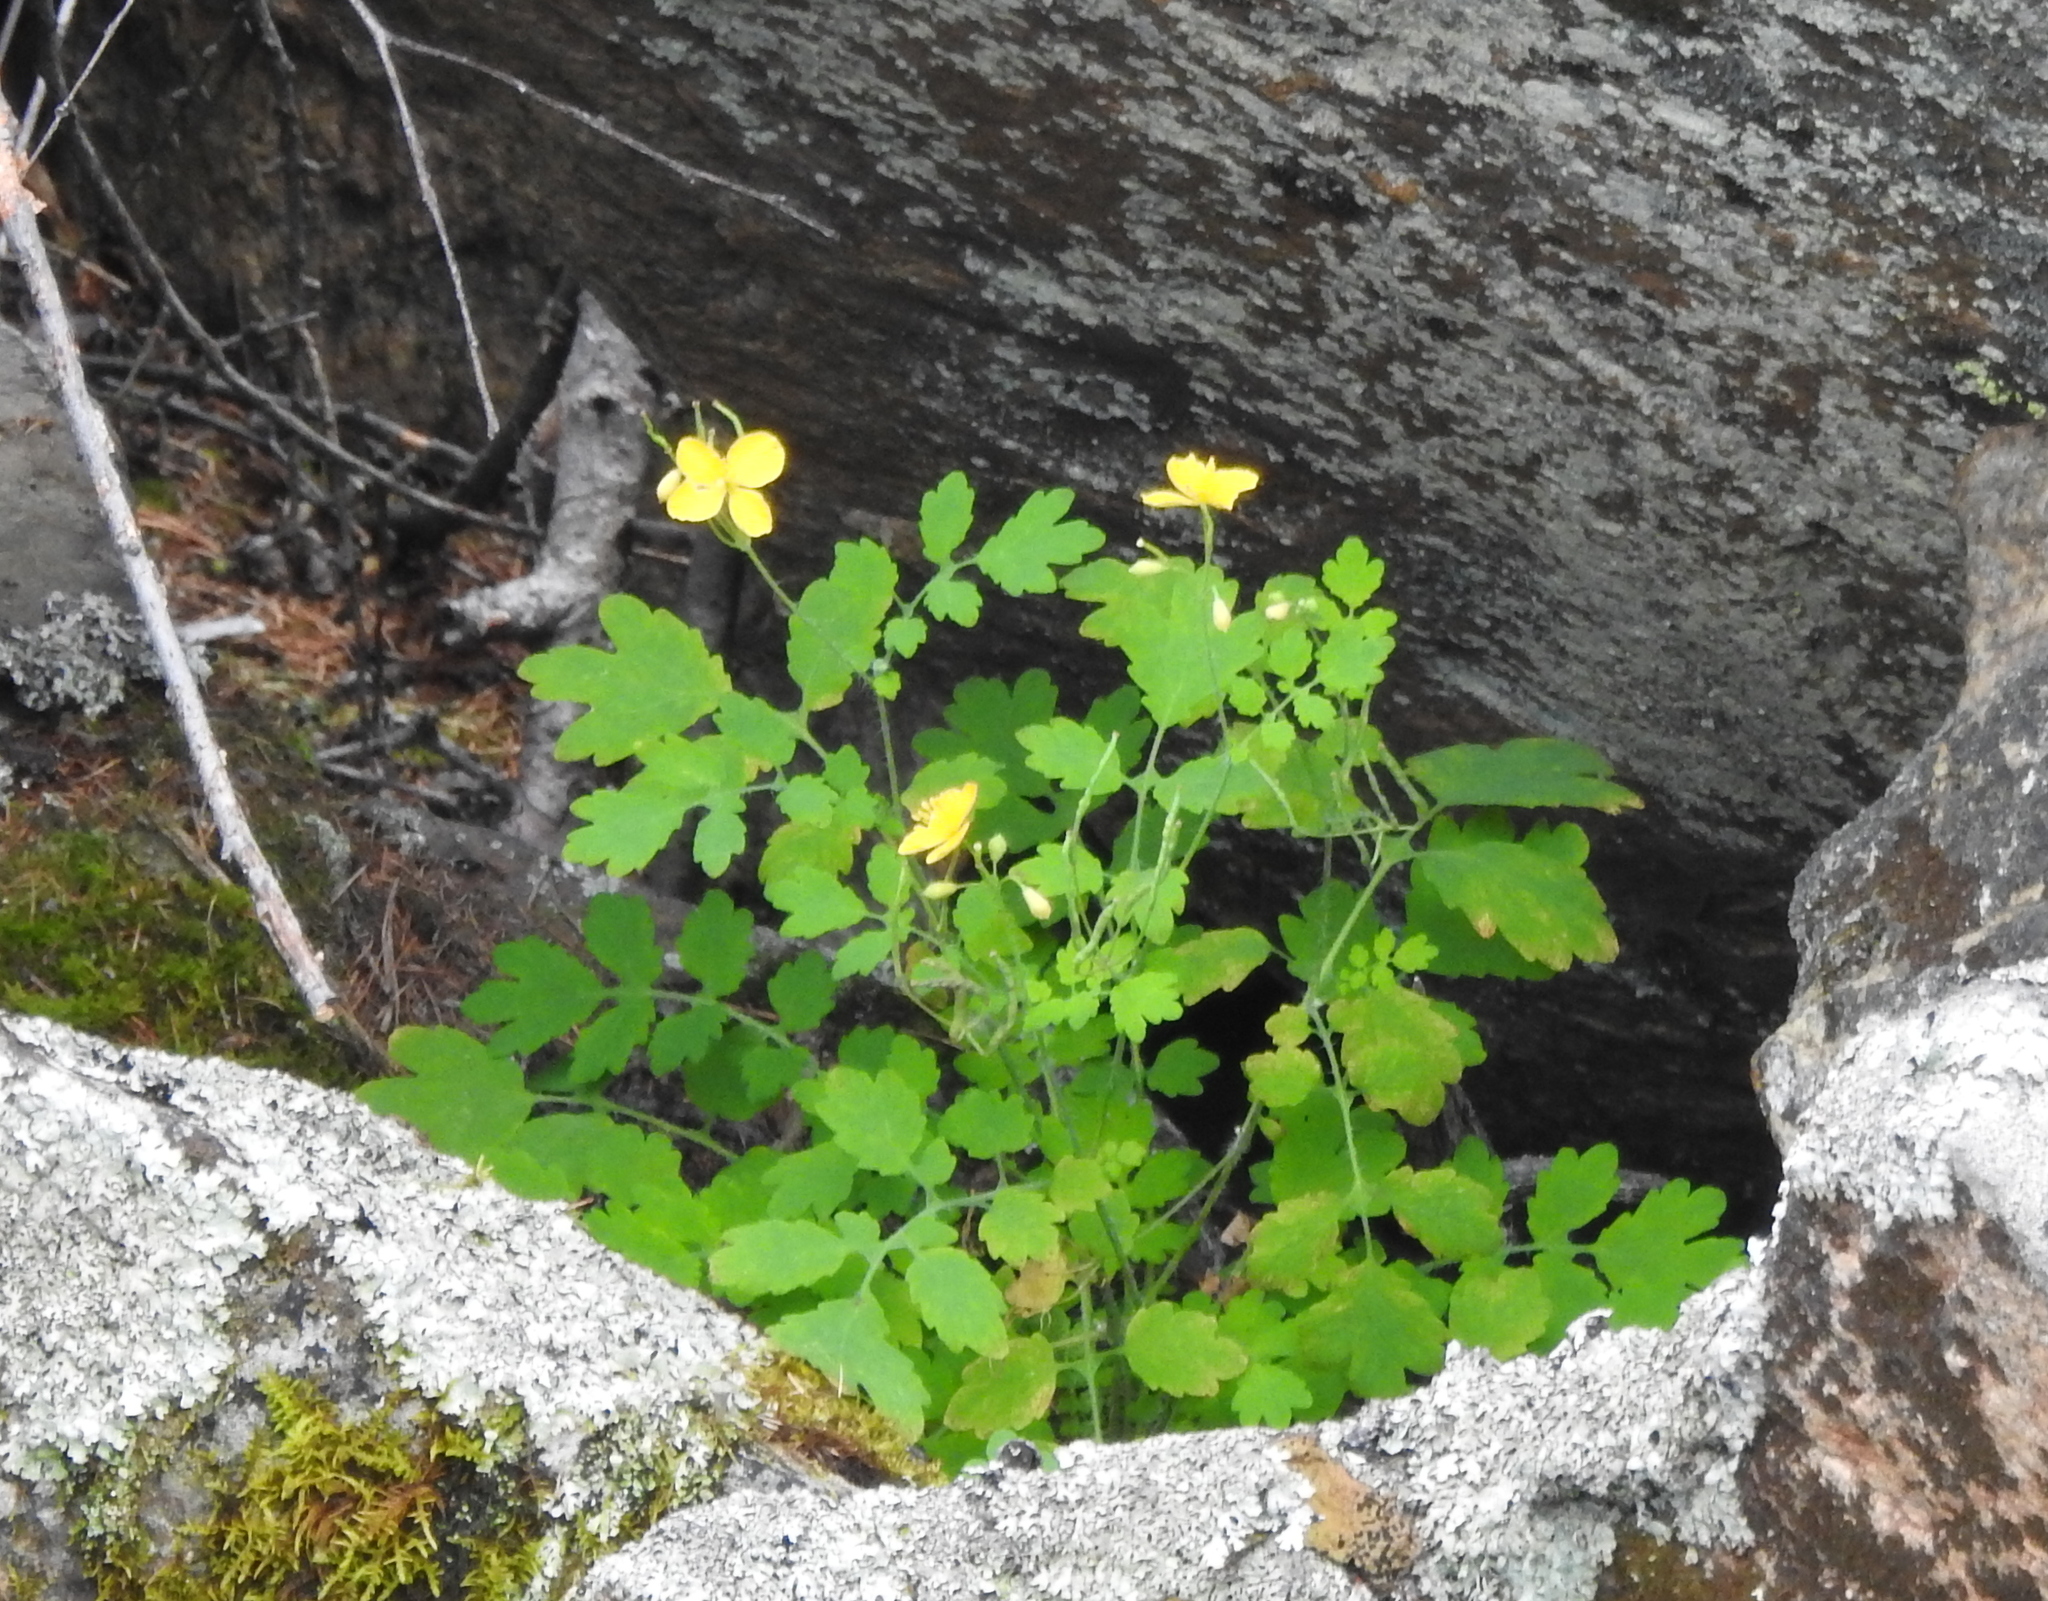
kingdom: Plantae
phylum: Tracheophyta
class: Magnoliopsida
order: Ranunculales
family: Papaveraceae
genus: Chelidonium
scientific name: Chelidonium majus
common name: Greater celandine
